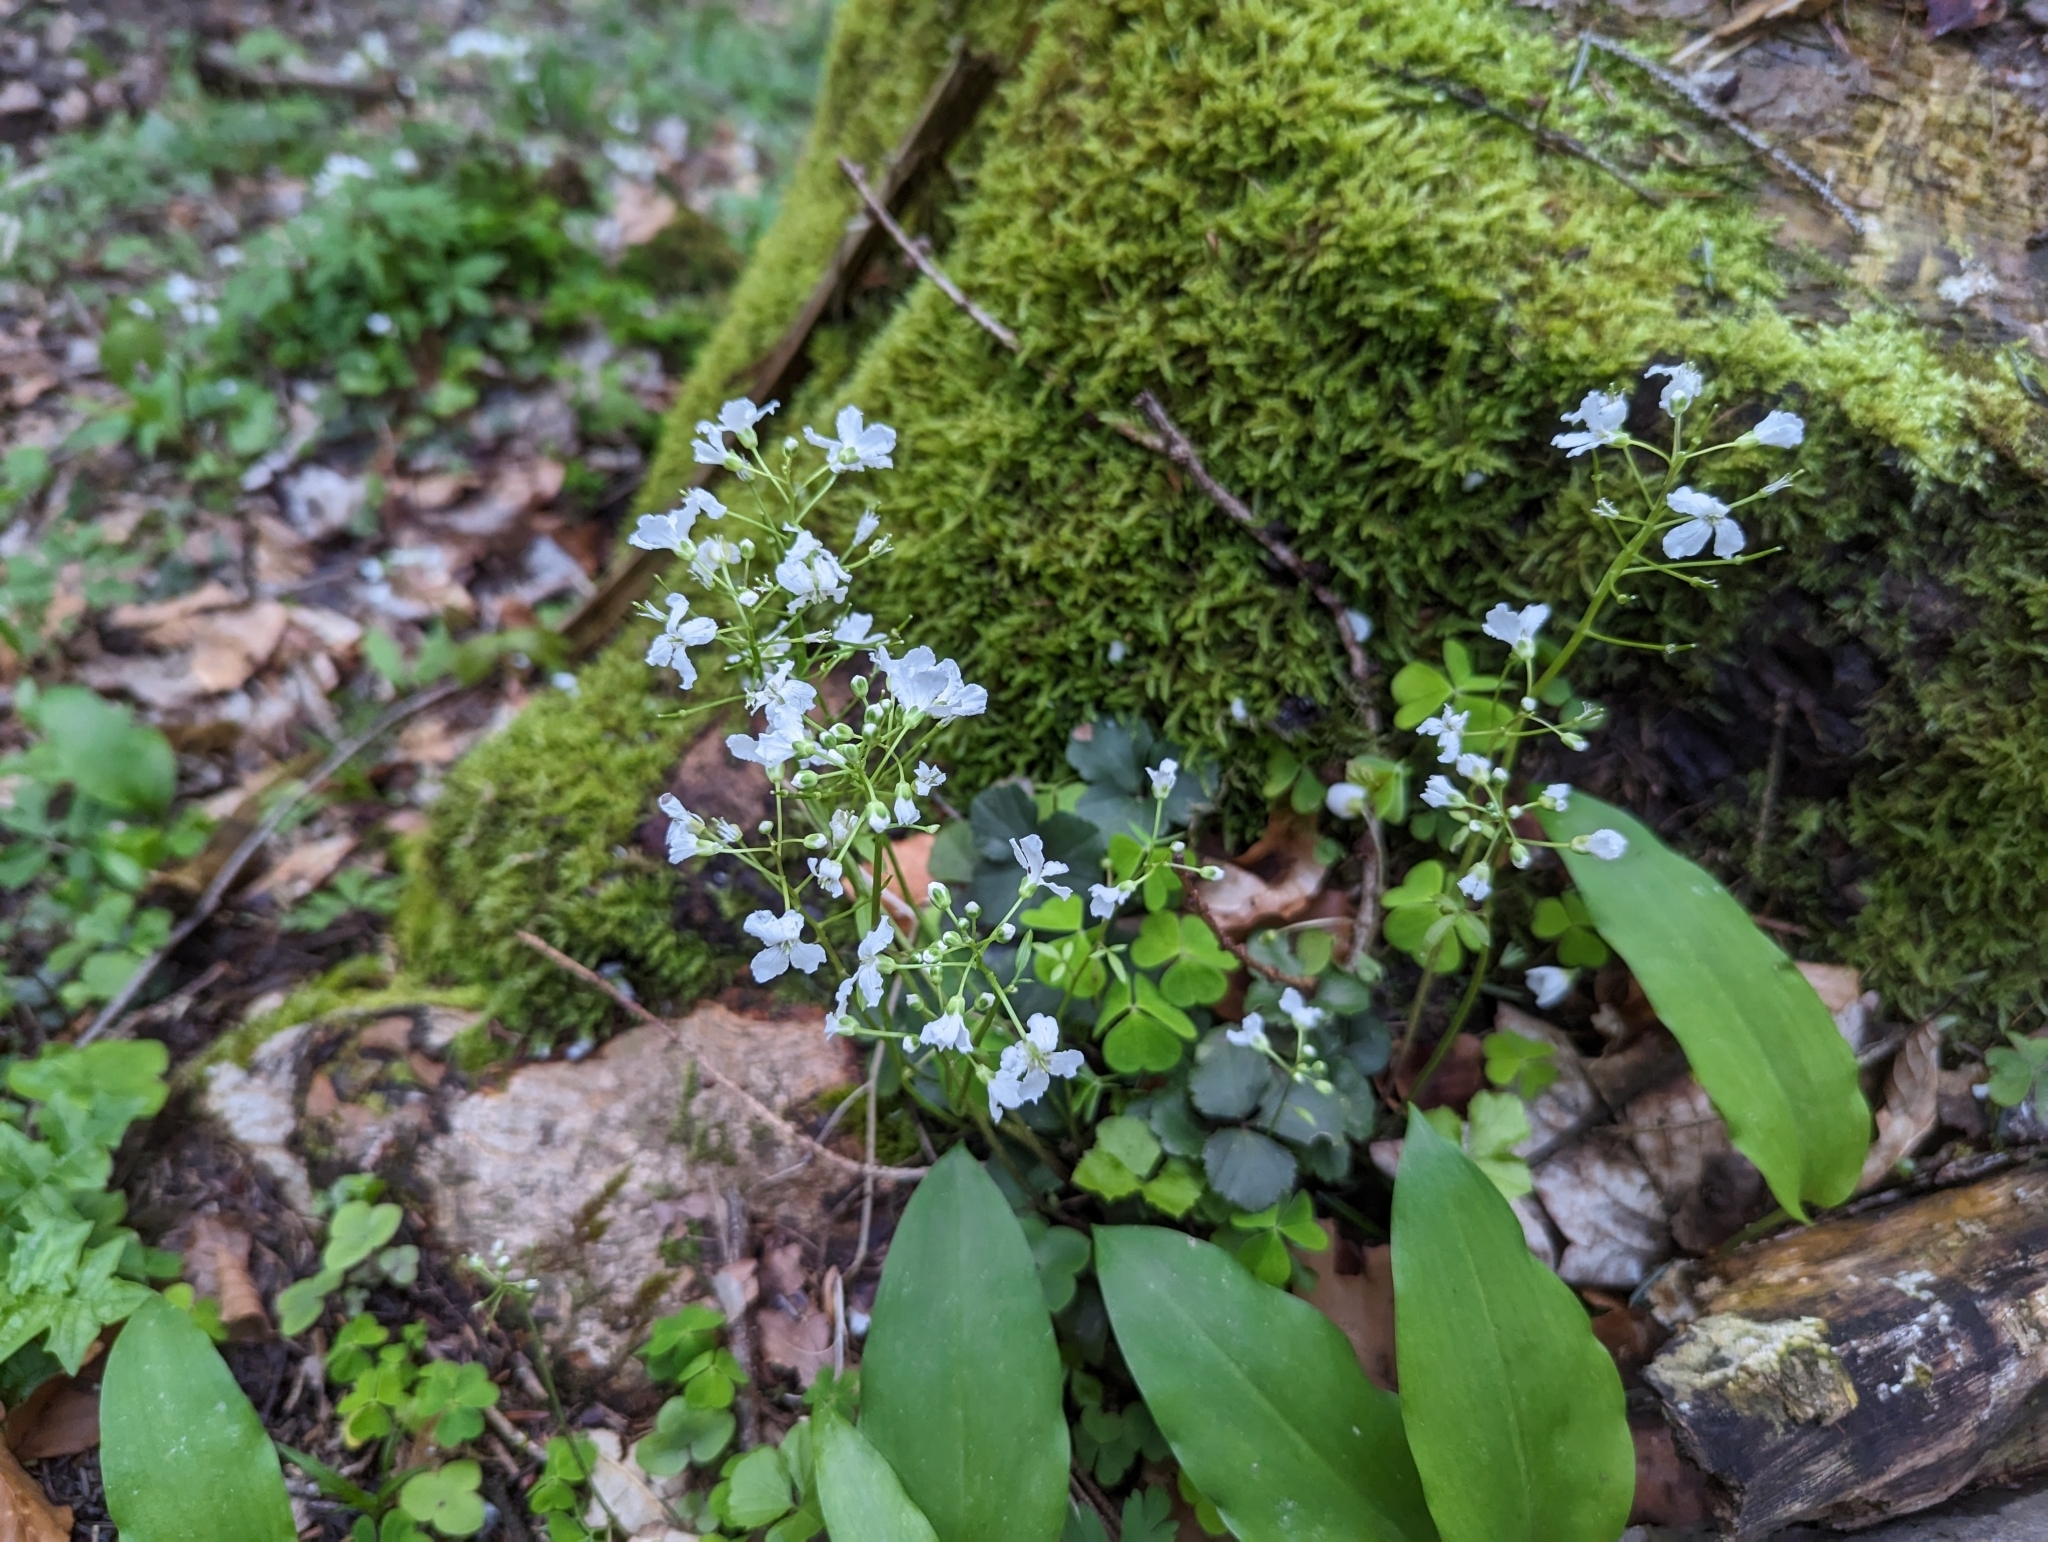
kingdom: Plantae
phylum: Tracheophyta
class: Magnoliopsida
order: Brassicales
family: Brassicaceae
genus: Cardamine
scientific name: Cardamine trifolia
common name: Trefoil cress
